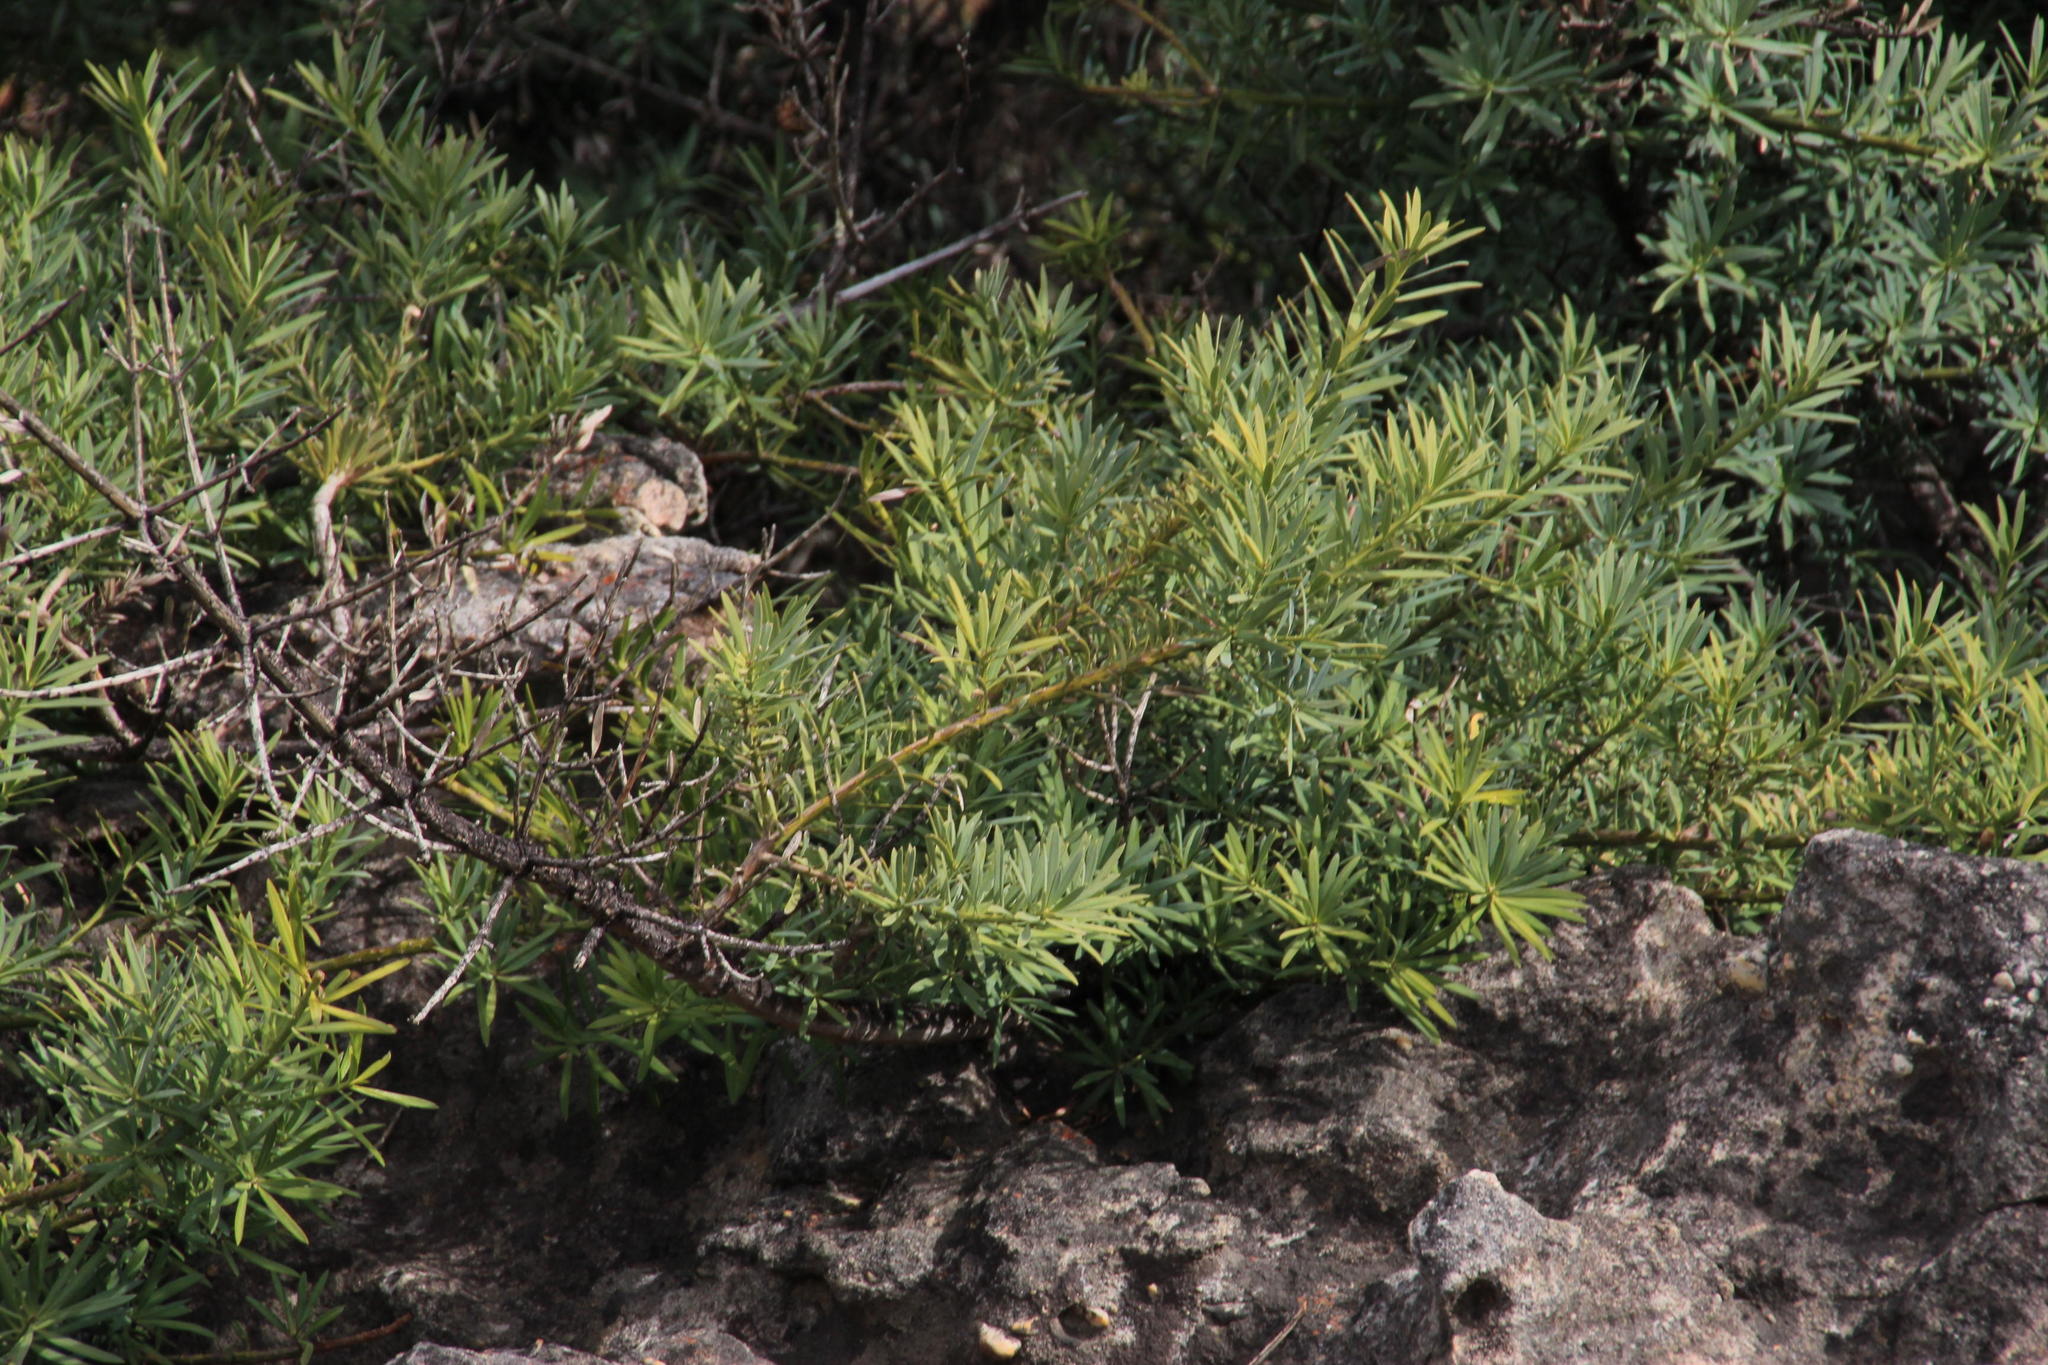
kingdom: Plantae
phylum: Tracheophyta
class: Pinopsida
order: Pinales
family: Podocarpaceae
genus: Podocarpus
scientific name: Podocarpus elongatus
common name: Breede river yellowwood
